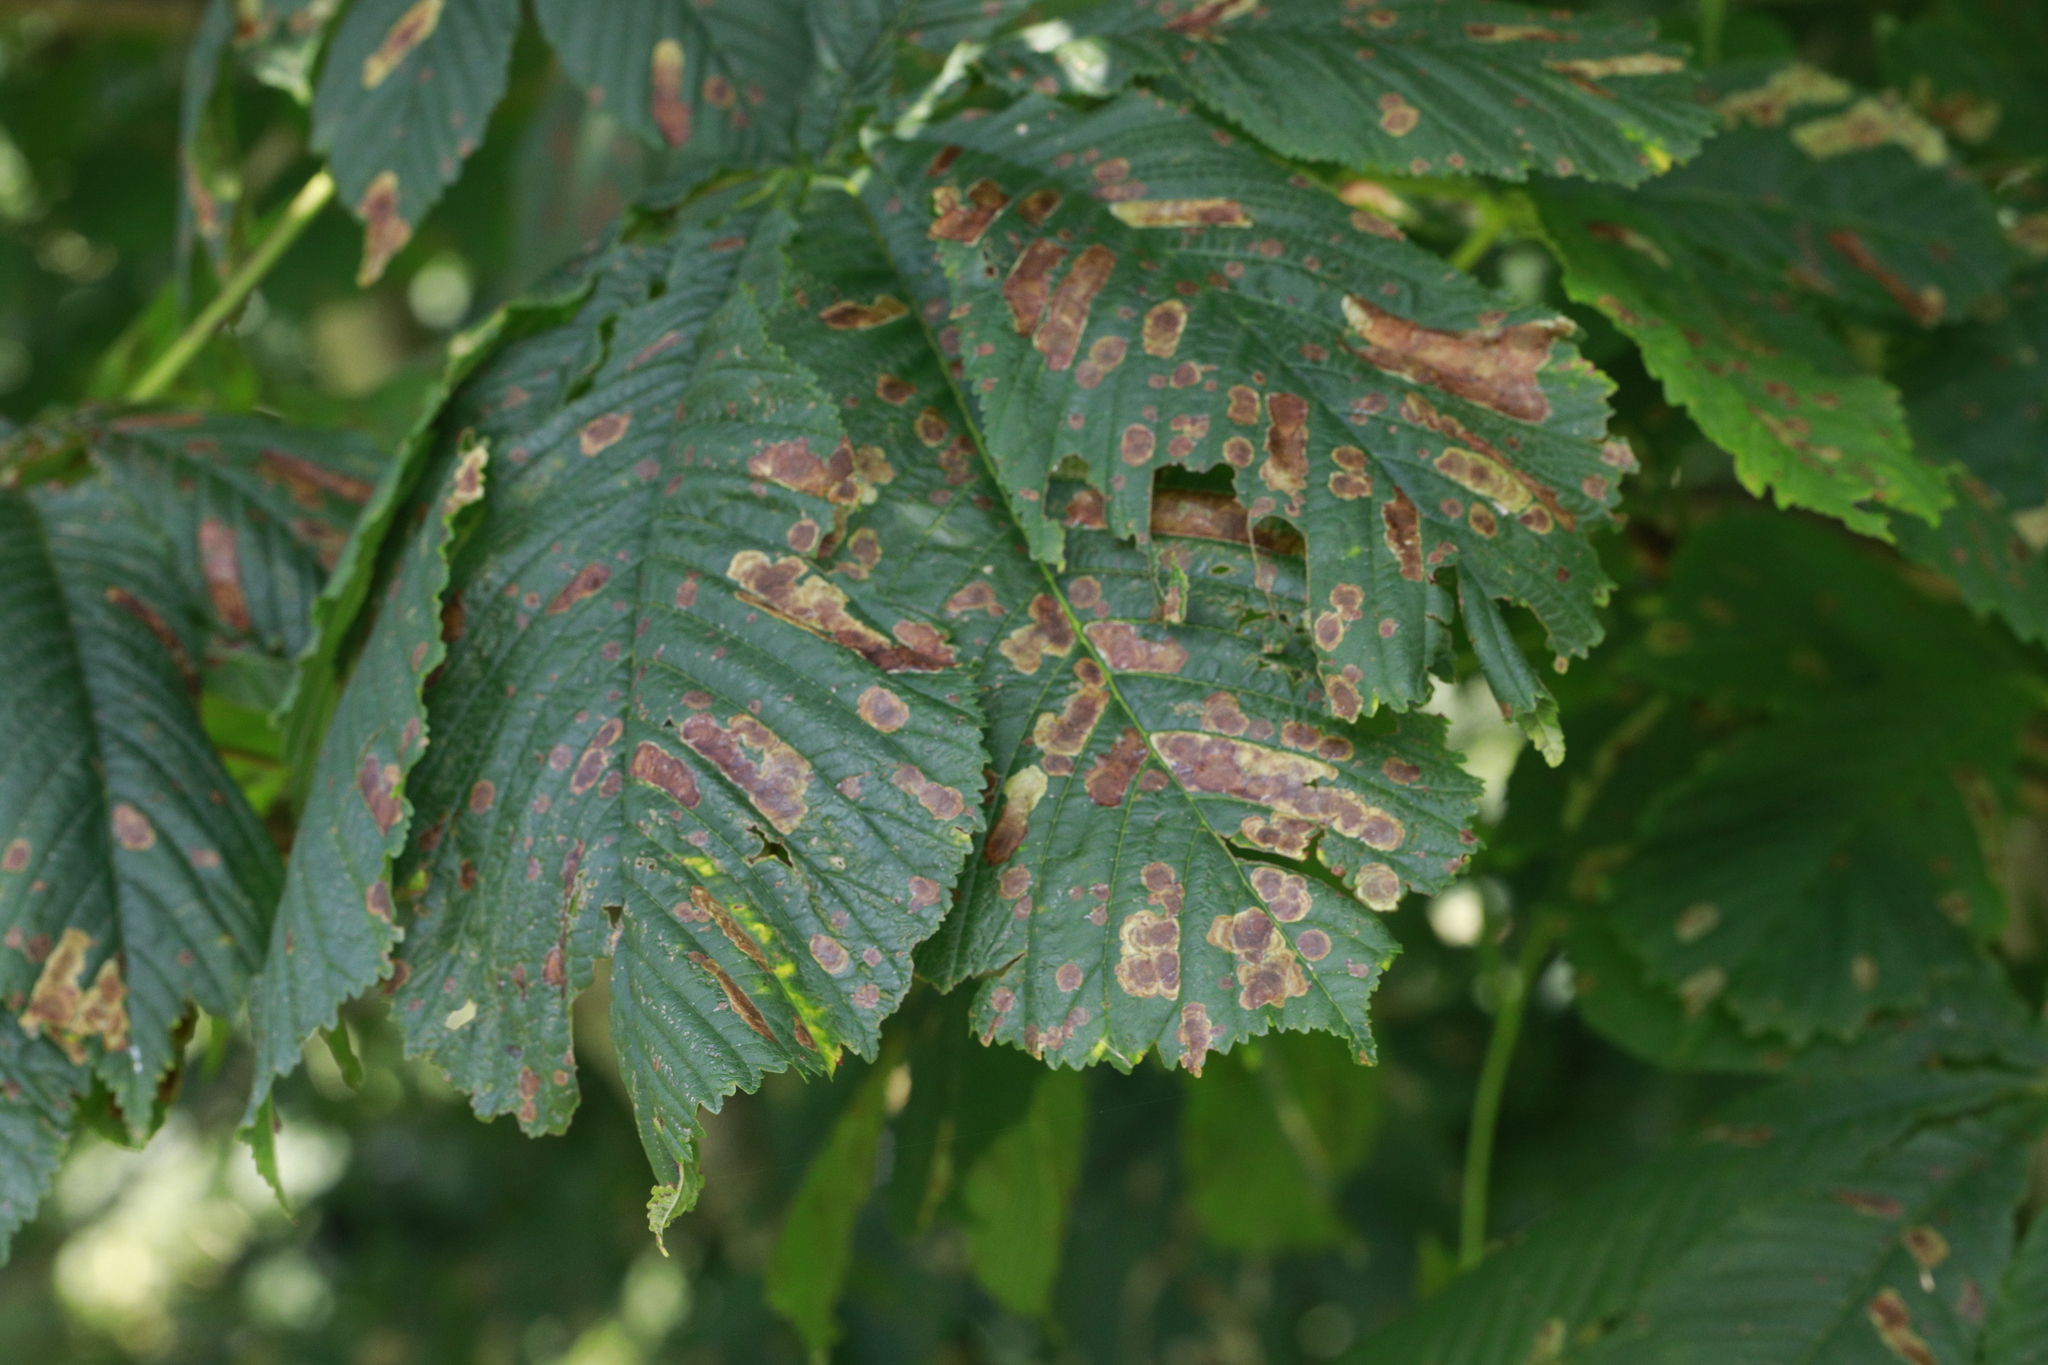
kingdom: Animalia
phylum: Arthropoda
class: Insecta
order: Lepidoptera
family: Gracillariidae
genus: Cameraria
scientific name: Cameraria ohridella
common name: Horse-chestnut leaf-miner
